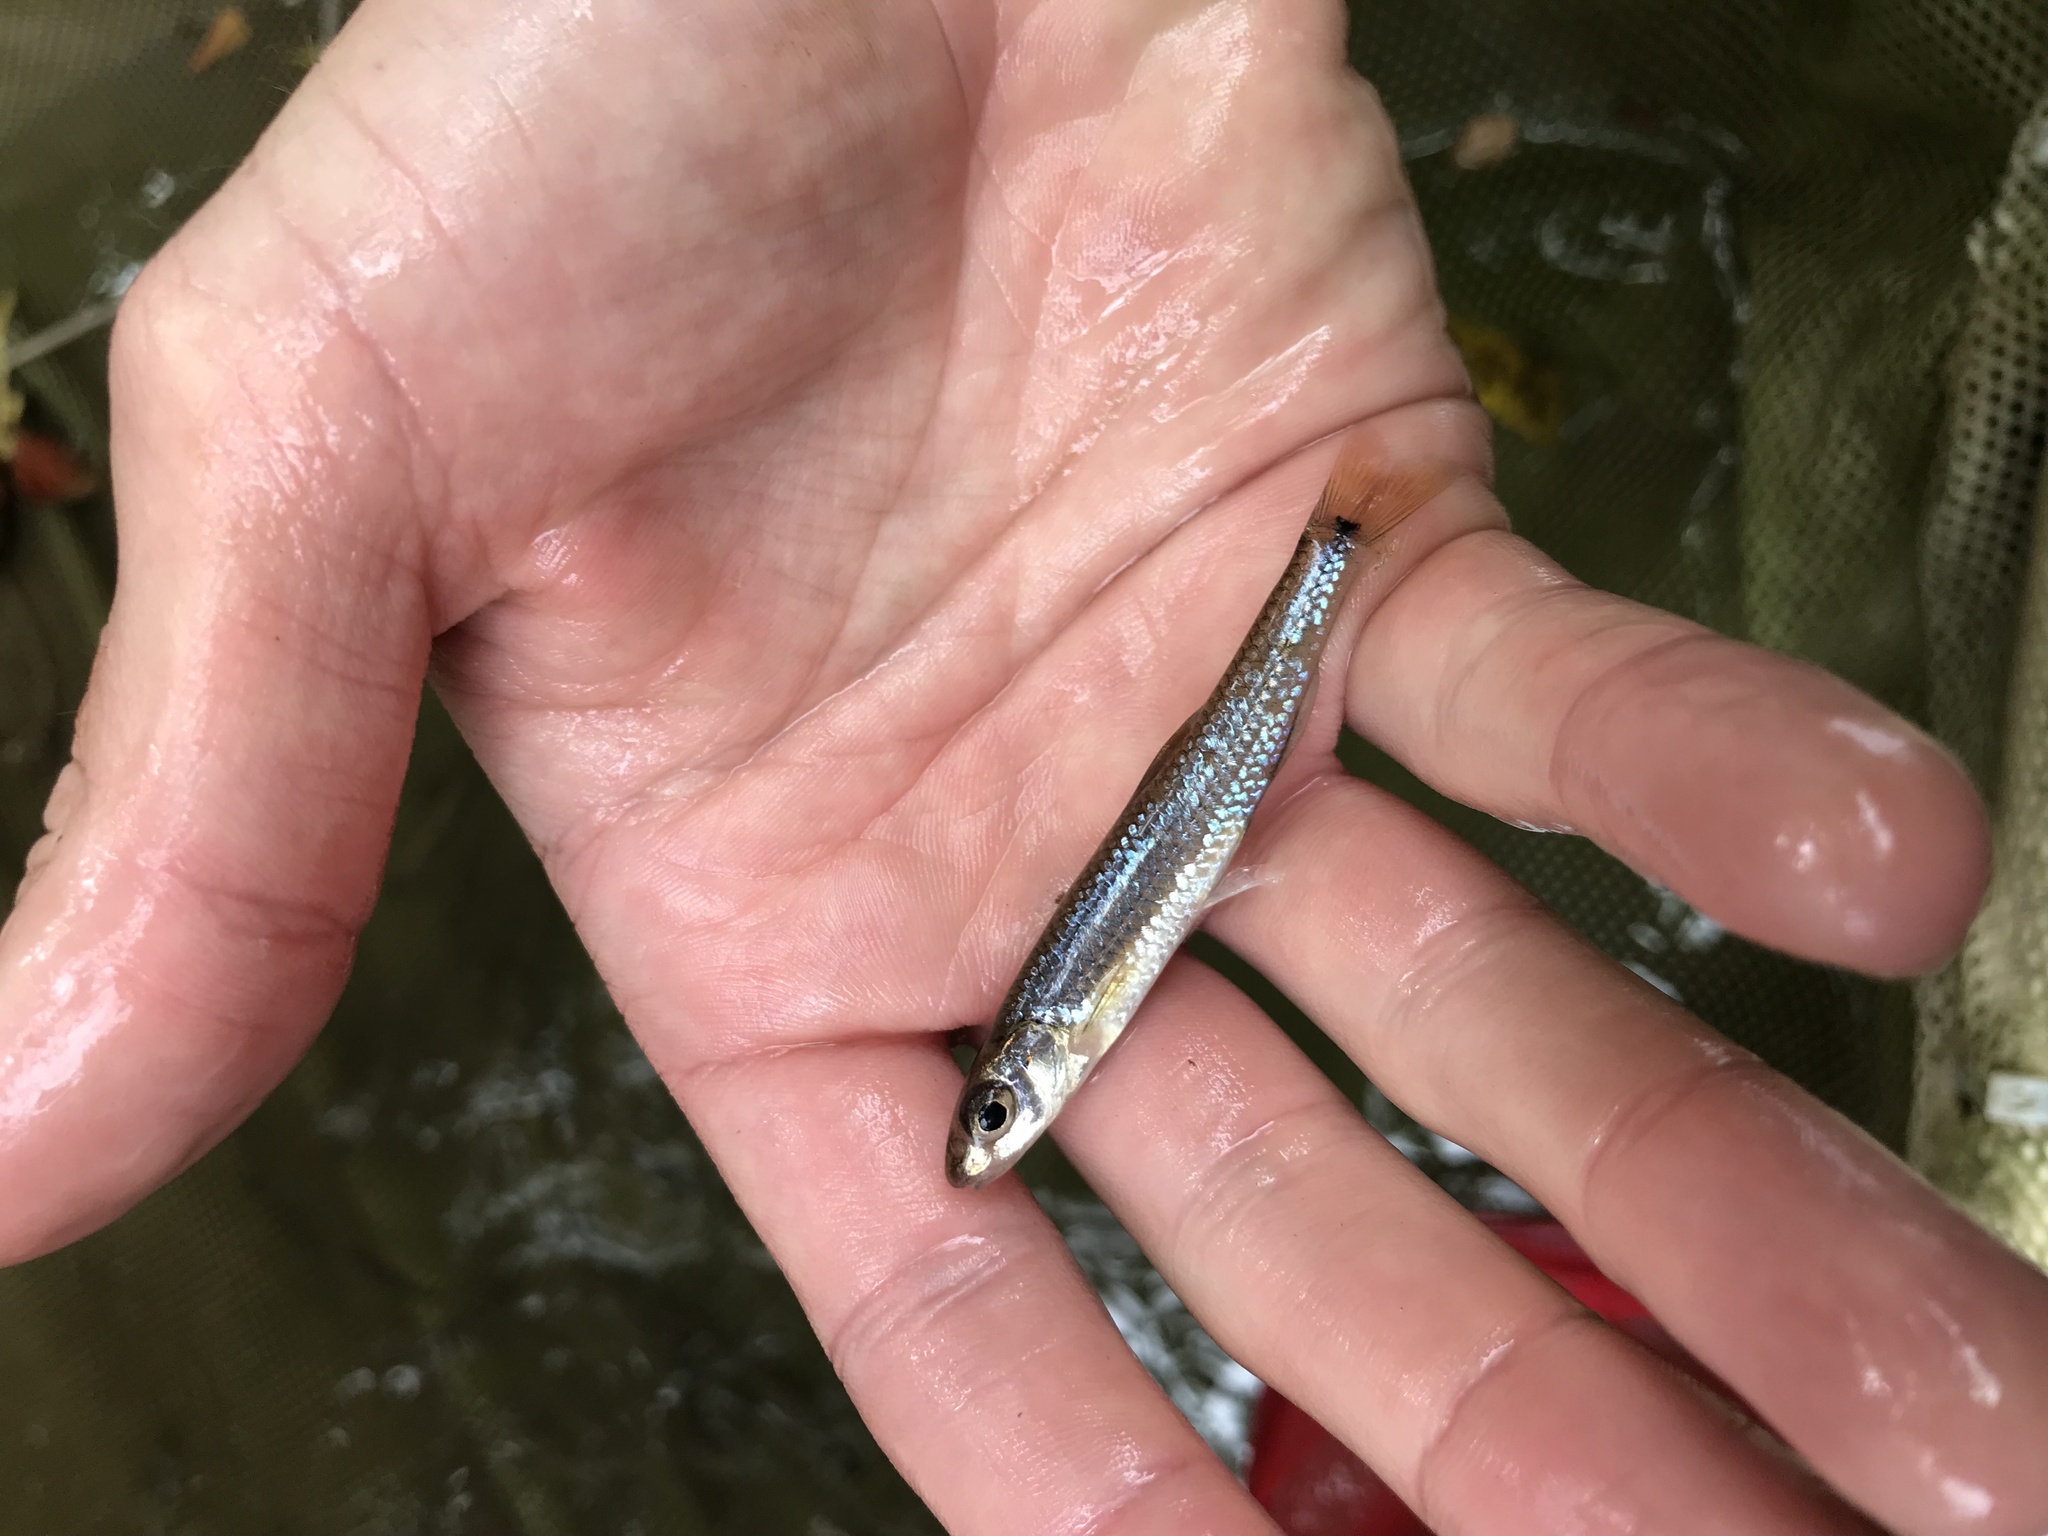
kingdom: Animalia
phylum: Chordata
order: Cypriniformes
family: Cyprinidae
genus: Notropis
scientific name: Notropis
